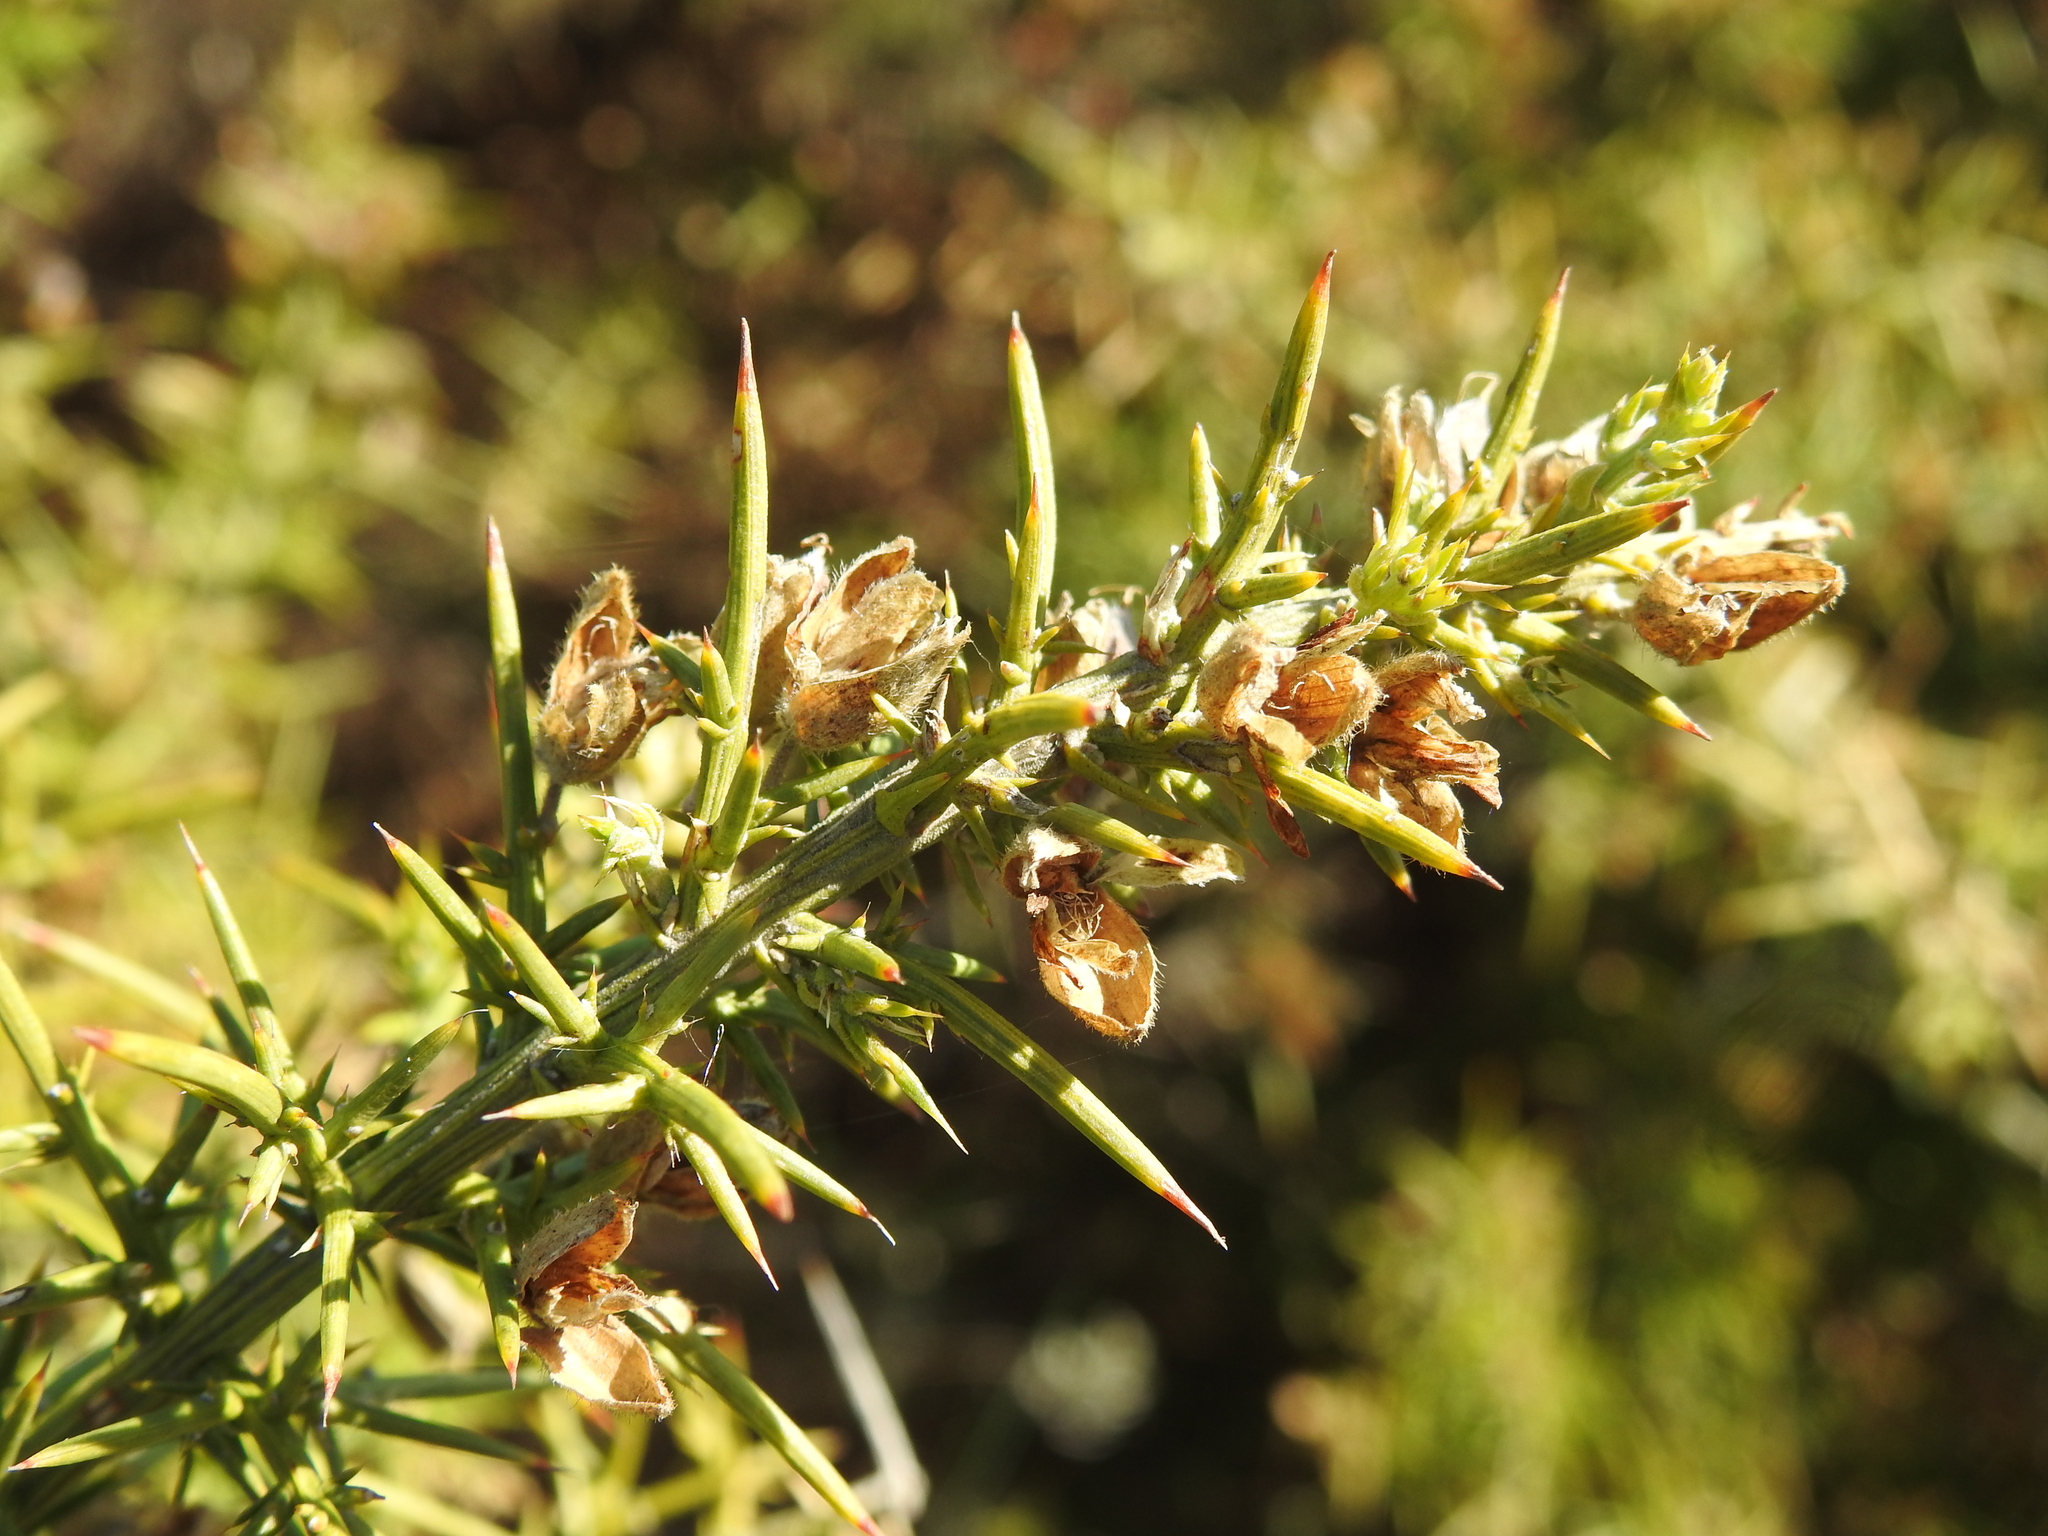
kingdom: Plantae
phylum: Tracheophyta
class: Magnoliopsida
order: Fabales
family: Fabaceae
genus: Ulex
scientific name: Ulex parviflorus
